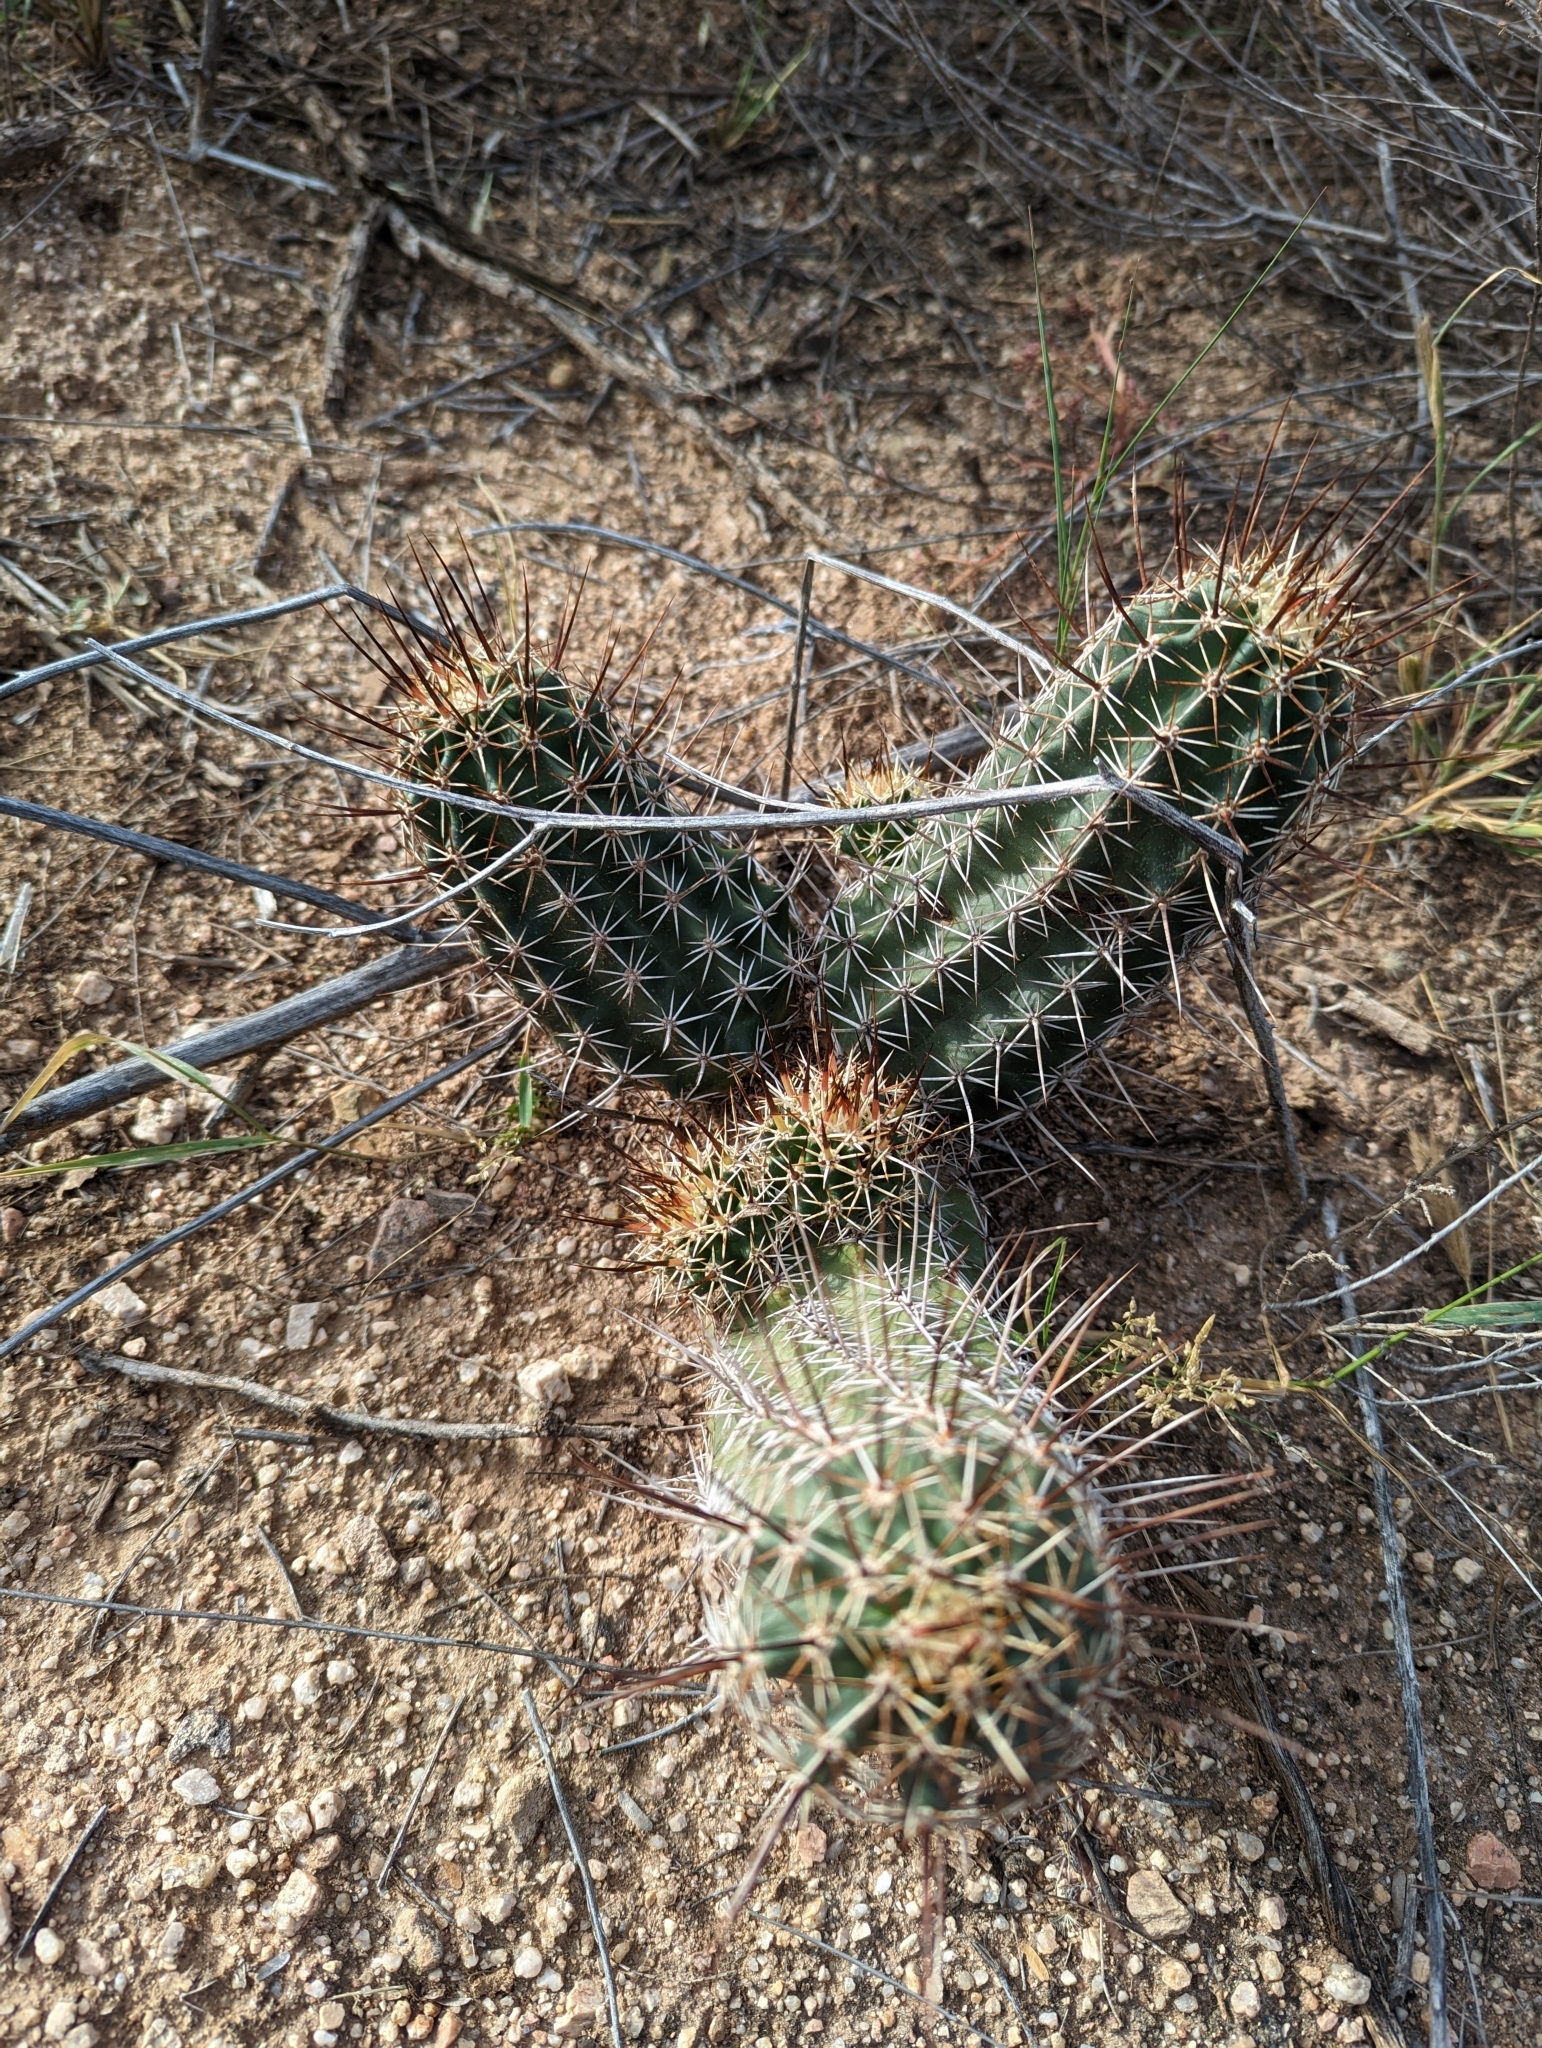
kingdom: Plantae
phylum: Tracheophyta
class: Magnoliopsida
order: Caryophyllales
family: Cactaceae
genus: Echinocereus
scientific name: Echinocereus fasciculatus
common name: Bundle hedgehog
